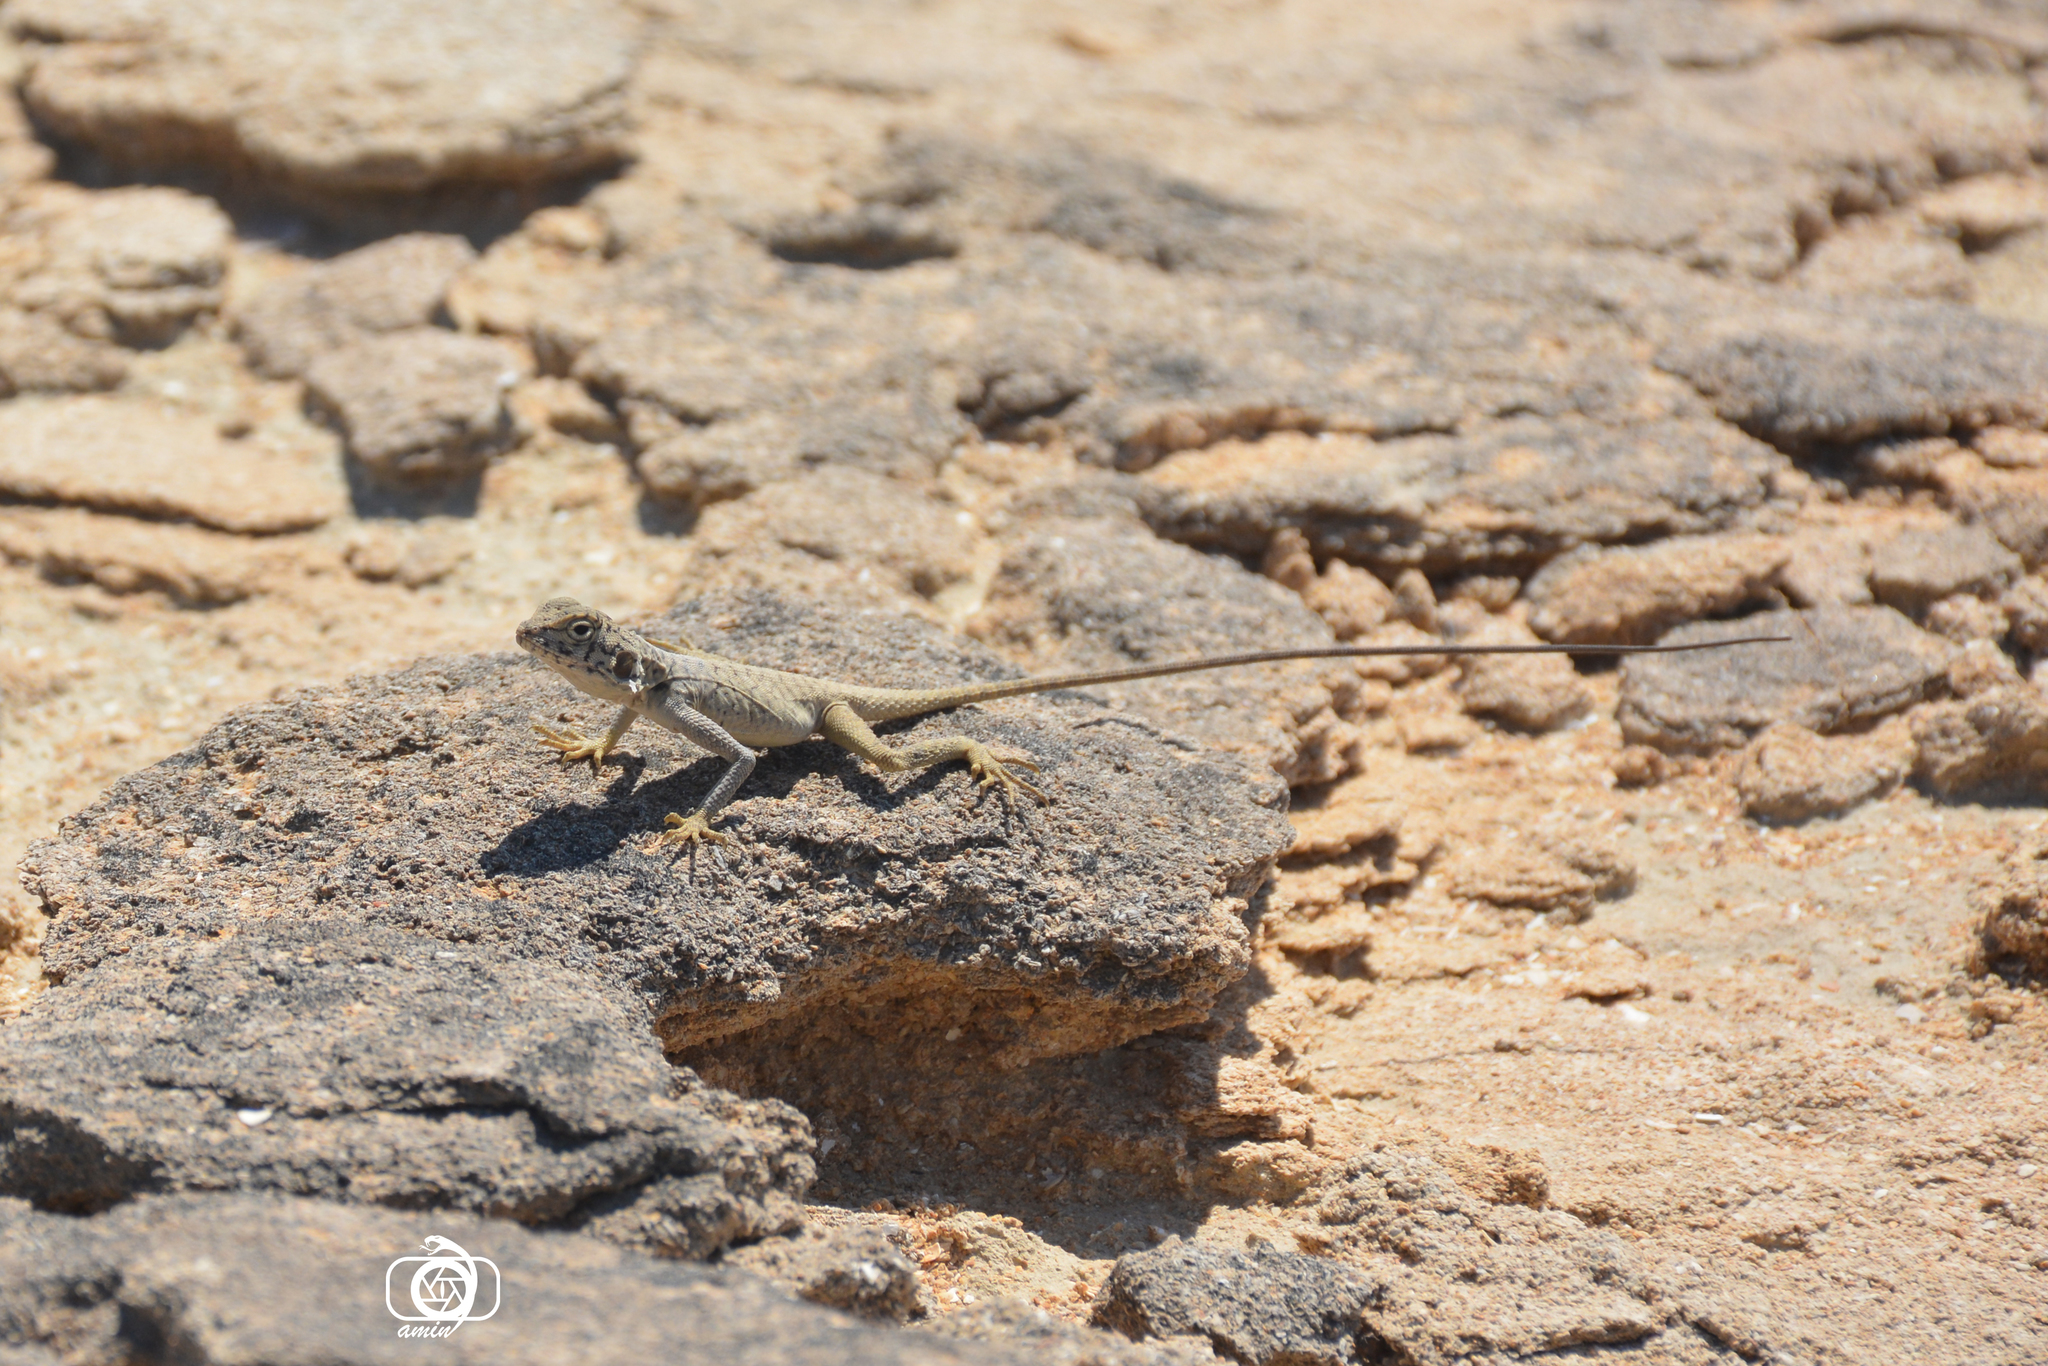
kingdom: Animalia
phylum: Chordata
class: Squamata
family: Agamidae
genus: Laudakia
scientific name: Laudakia melanura
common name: Black agama
